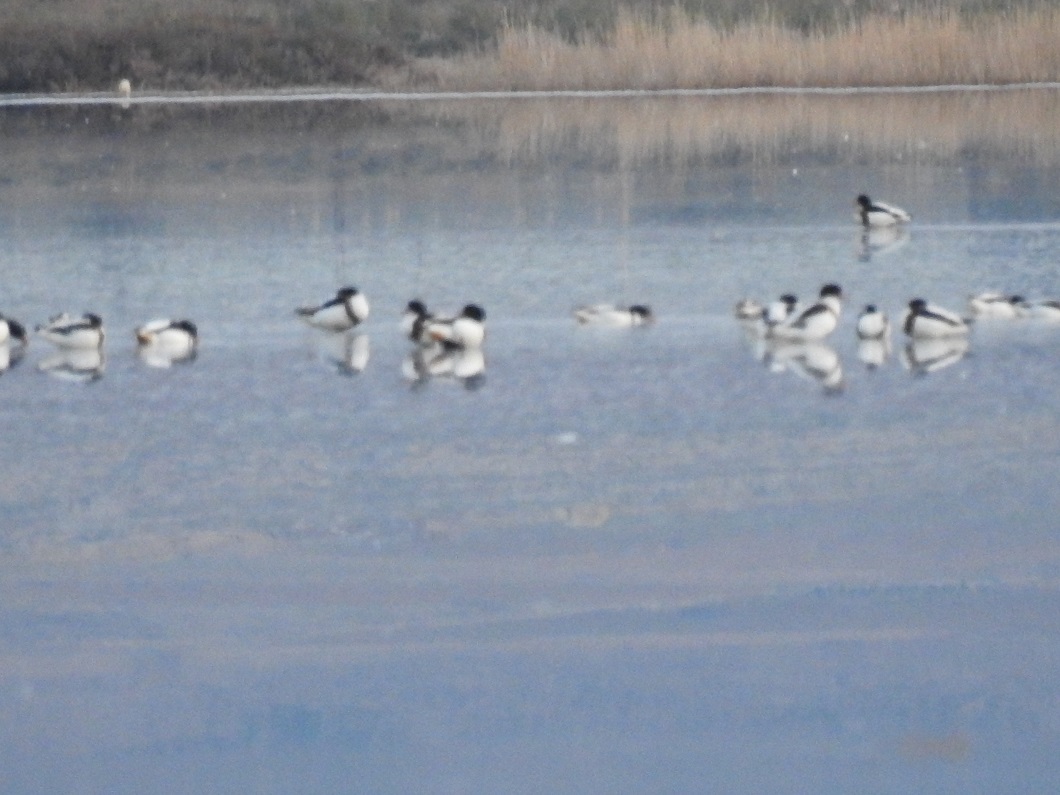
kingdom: Animalia
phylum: Chordata
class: Aves
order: Anseriformes
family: Anatidae
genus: Tadorna
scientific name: Tadorna tadorna
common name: Common shelduck
